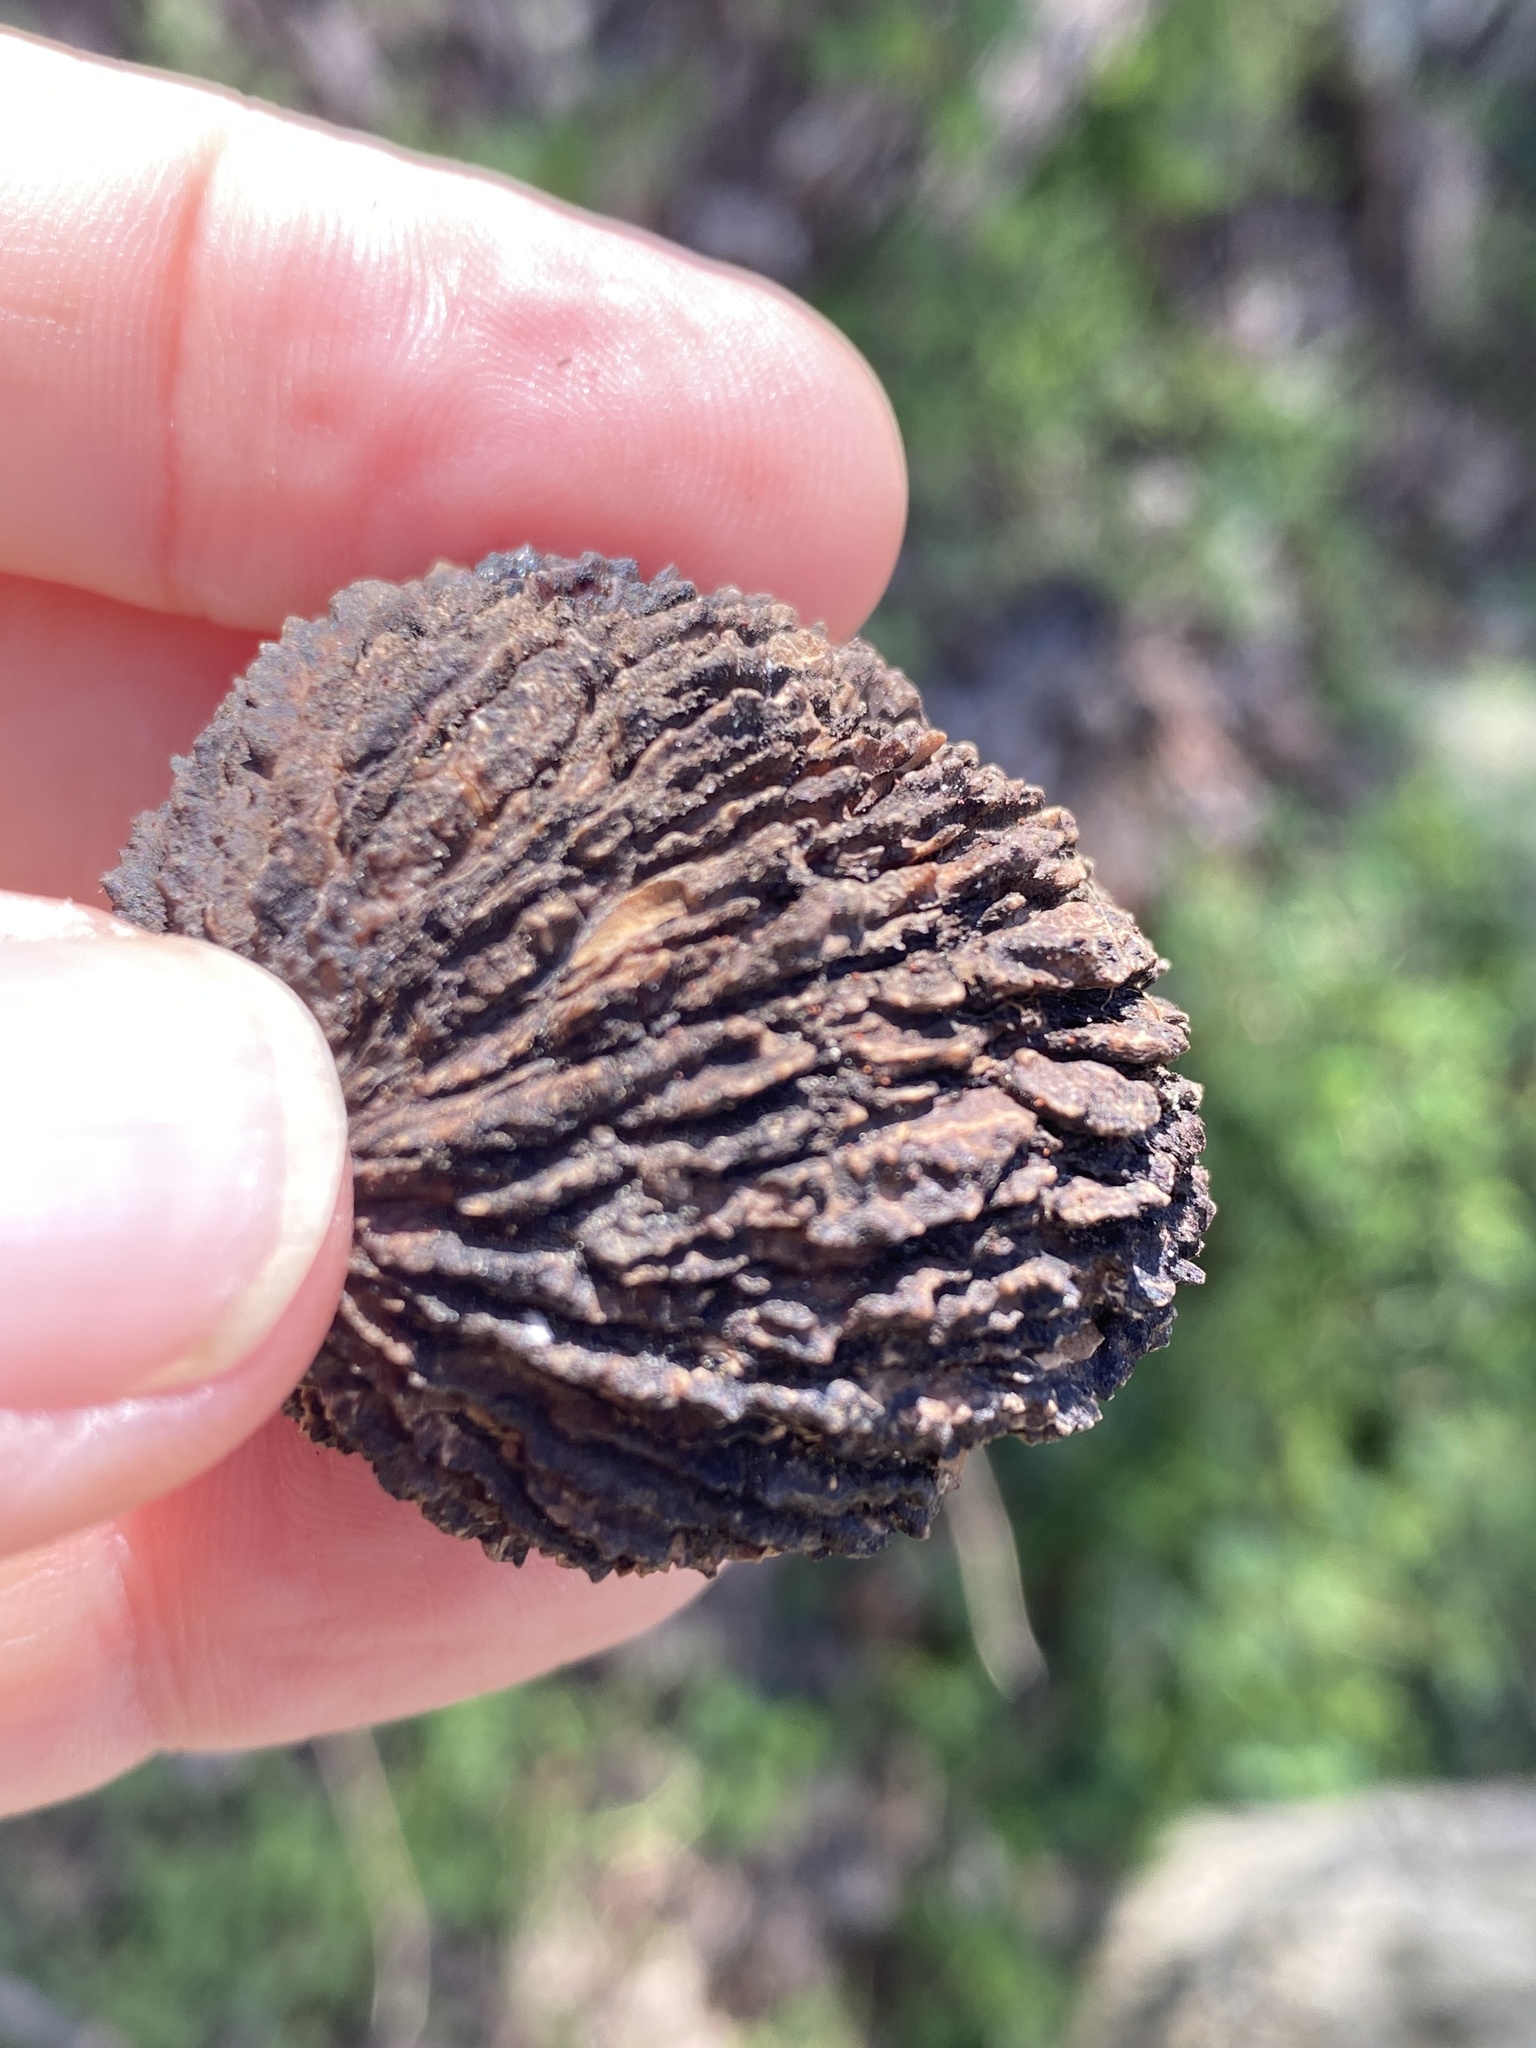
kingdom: Plantae
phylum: Tracheophyta
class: Magnoliopsida
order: Fagales
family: Juglandaceae
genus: Juglans
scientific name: Juglans nigra
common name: Black walnut
